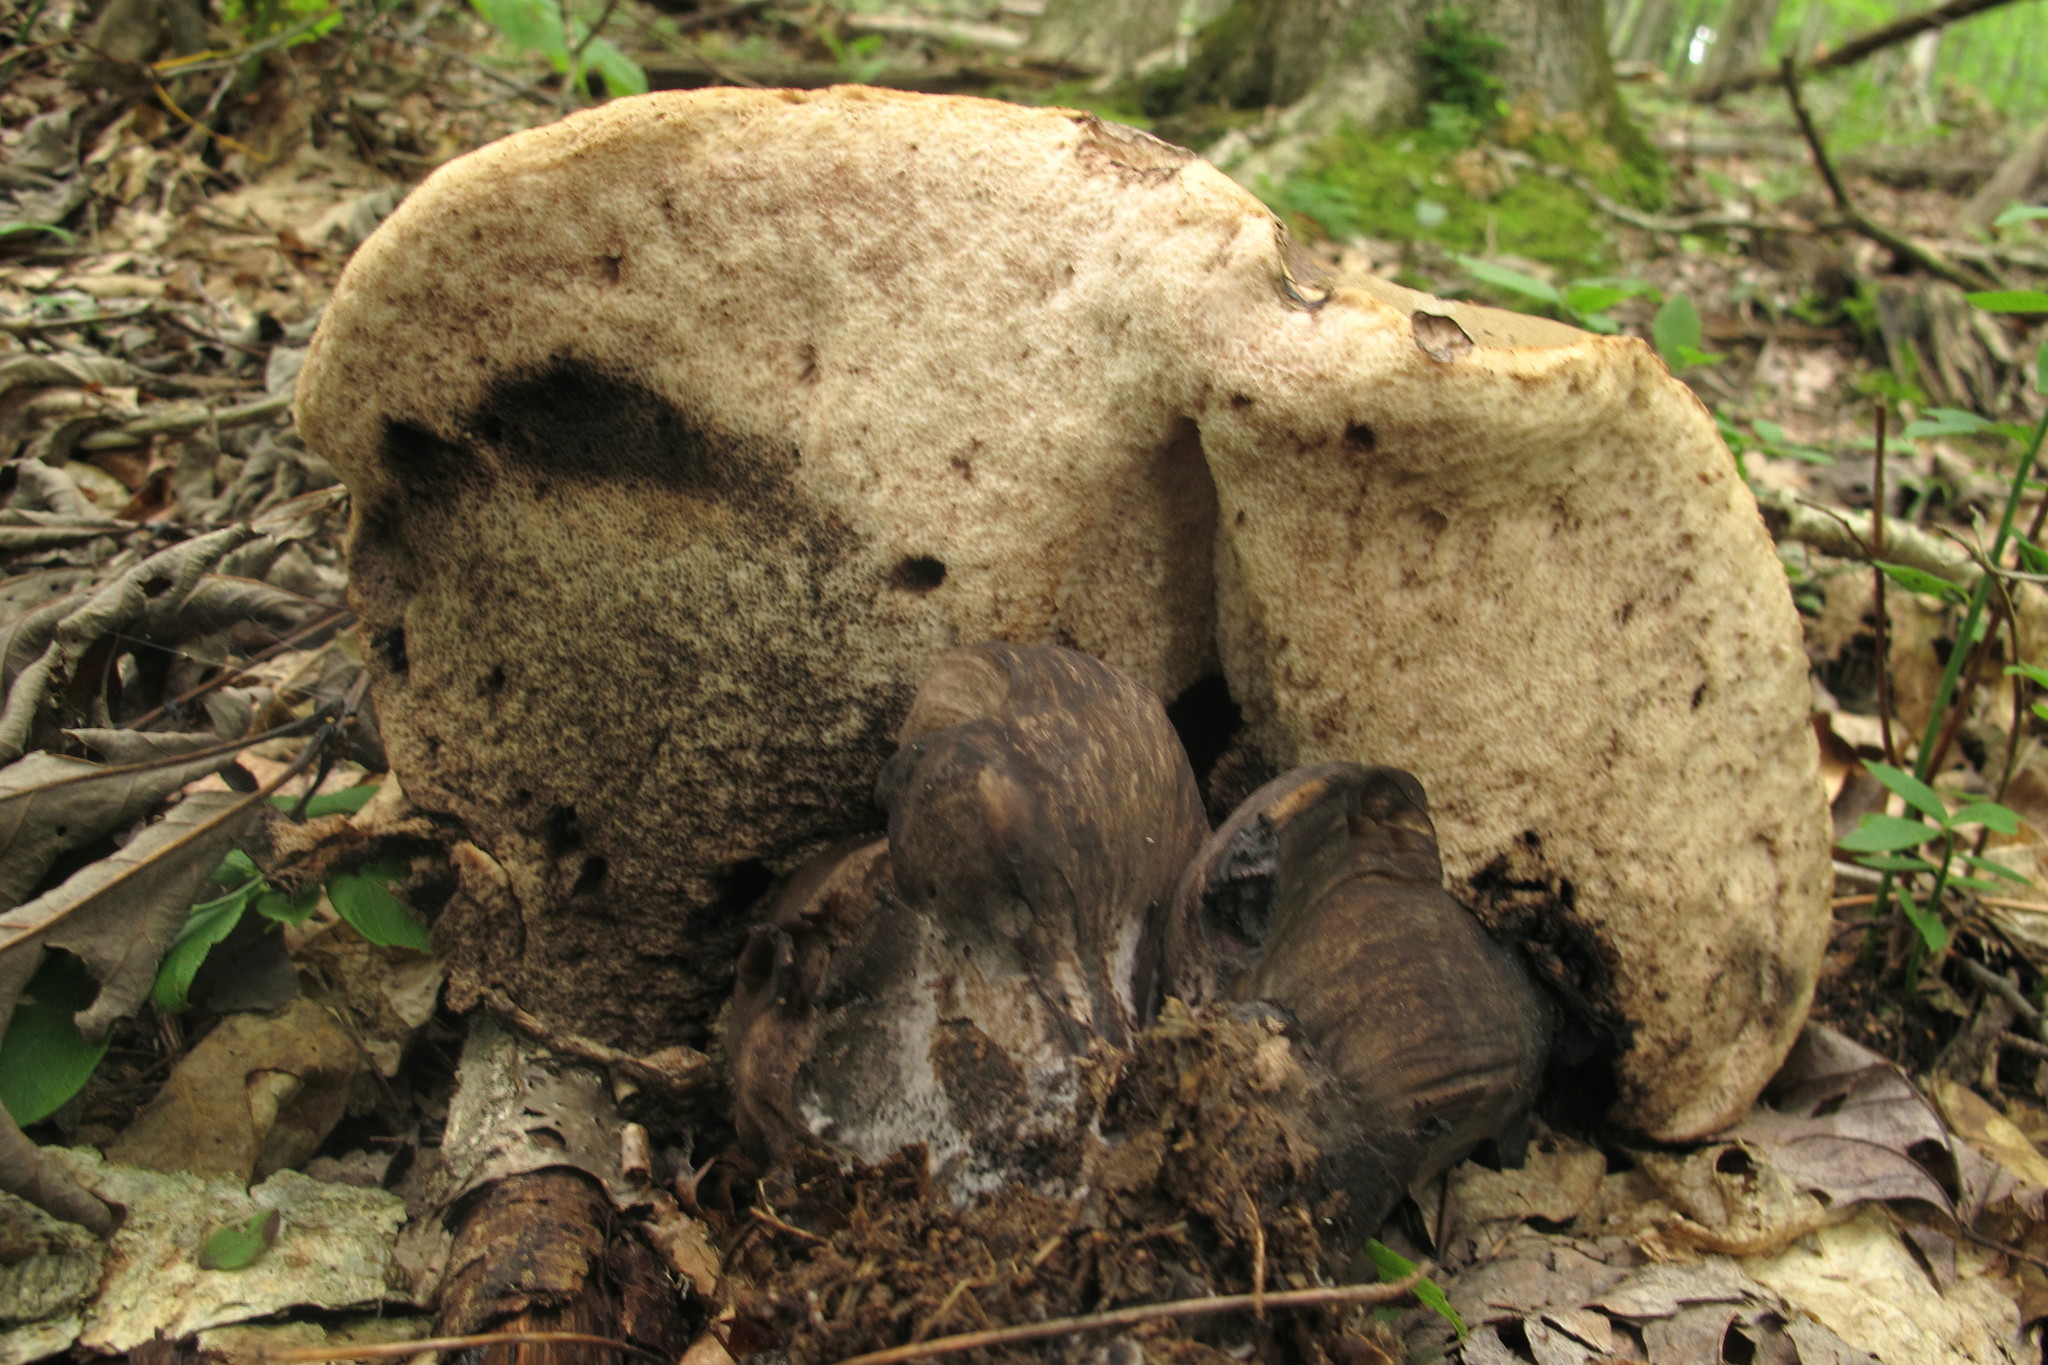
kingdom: Fungi
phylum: Basidiomycota
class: Agaricomycetes
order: Boletales
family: Boletaceae
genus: Tylopilus
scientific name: Tylopilus atronicotianus
